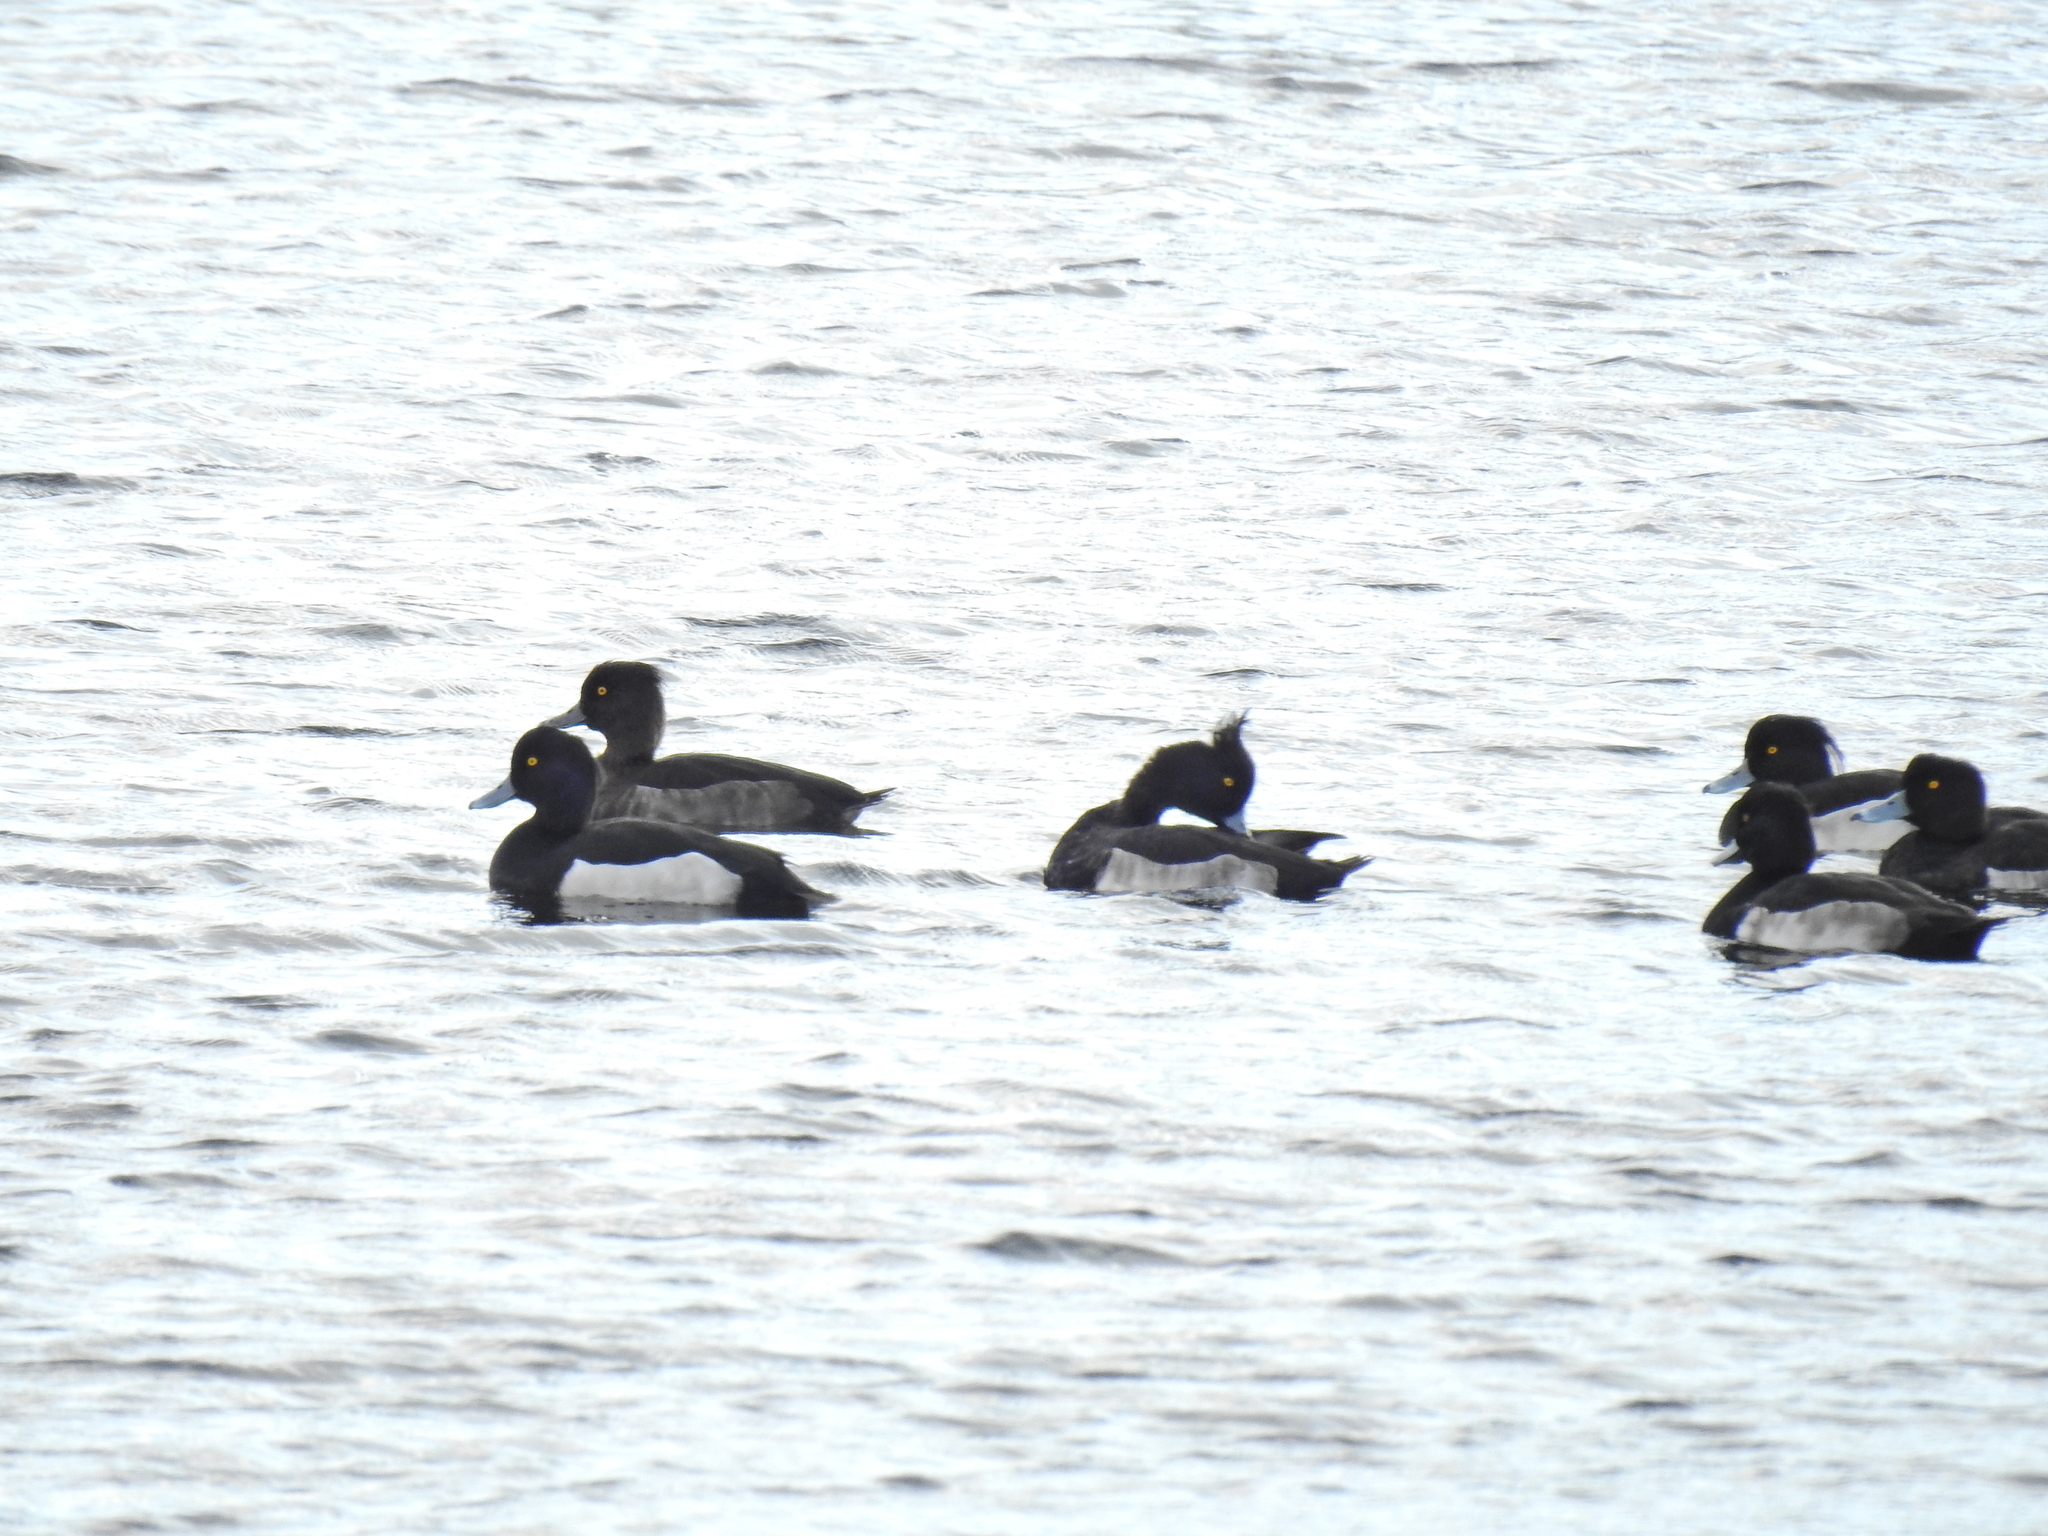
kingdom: Animalia
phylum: Chordata
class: Aves
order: Anseriformes
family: Anatidae
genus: Aythya
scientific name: Aythya fuligula
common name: Tufted duck
